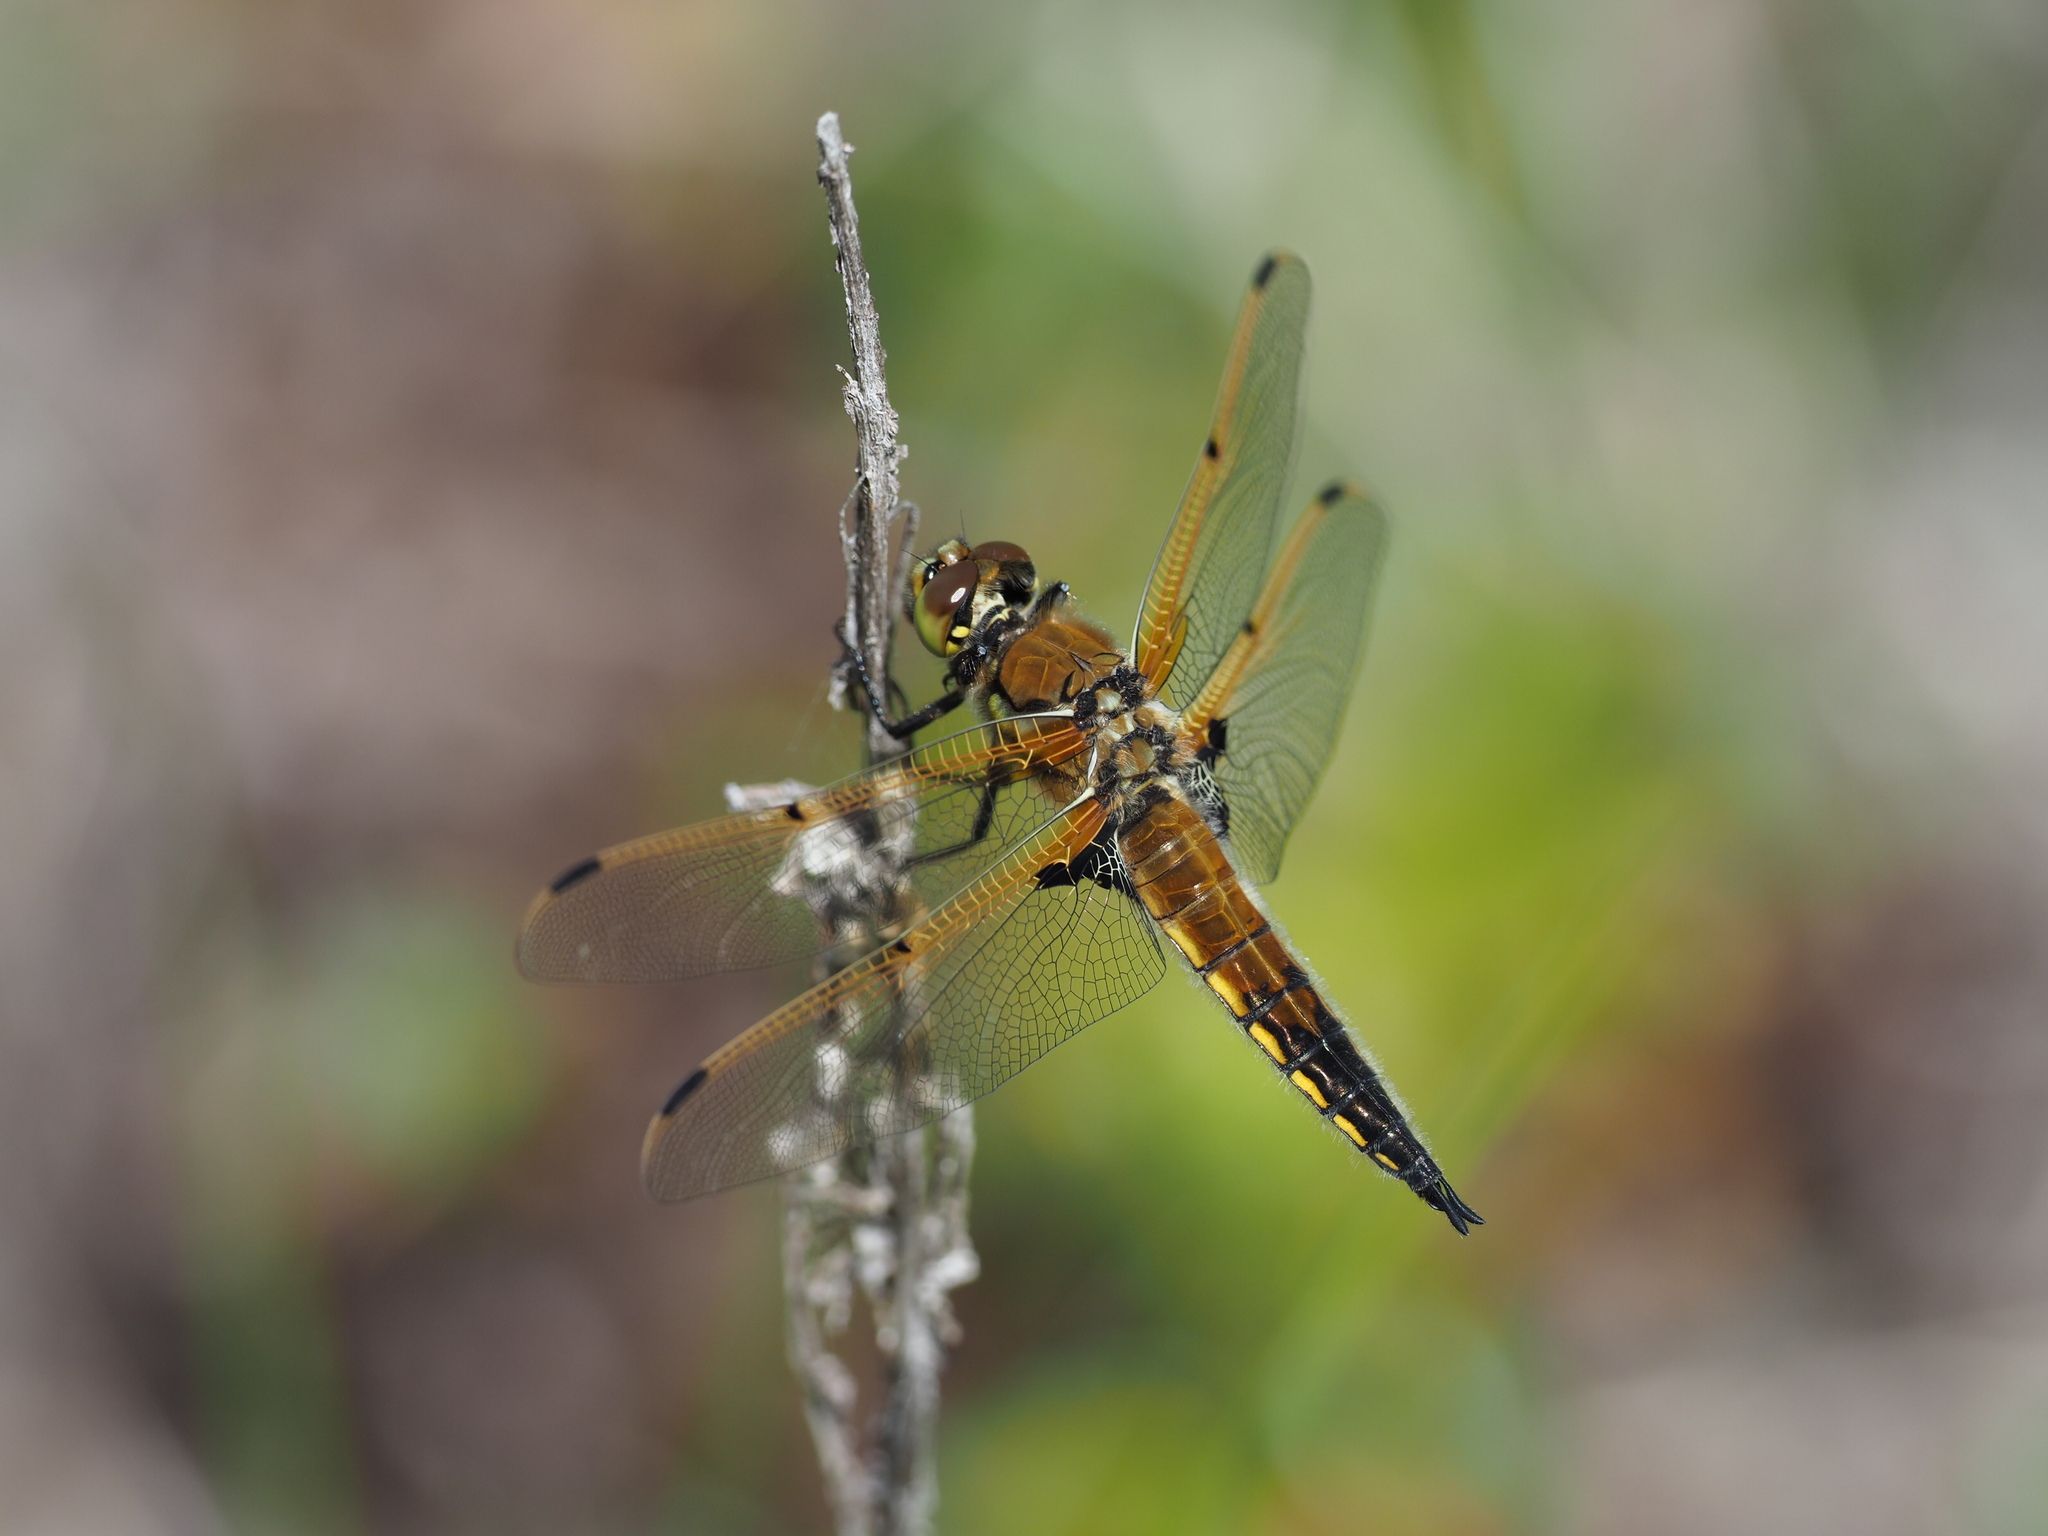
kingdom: Animalia
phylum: Arthropoda
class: Insecta
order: Odonata
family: Libellulidae
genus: Libellula
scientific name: Libellula quadrimaculata
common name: Four-spotted chaser
